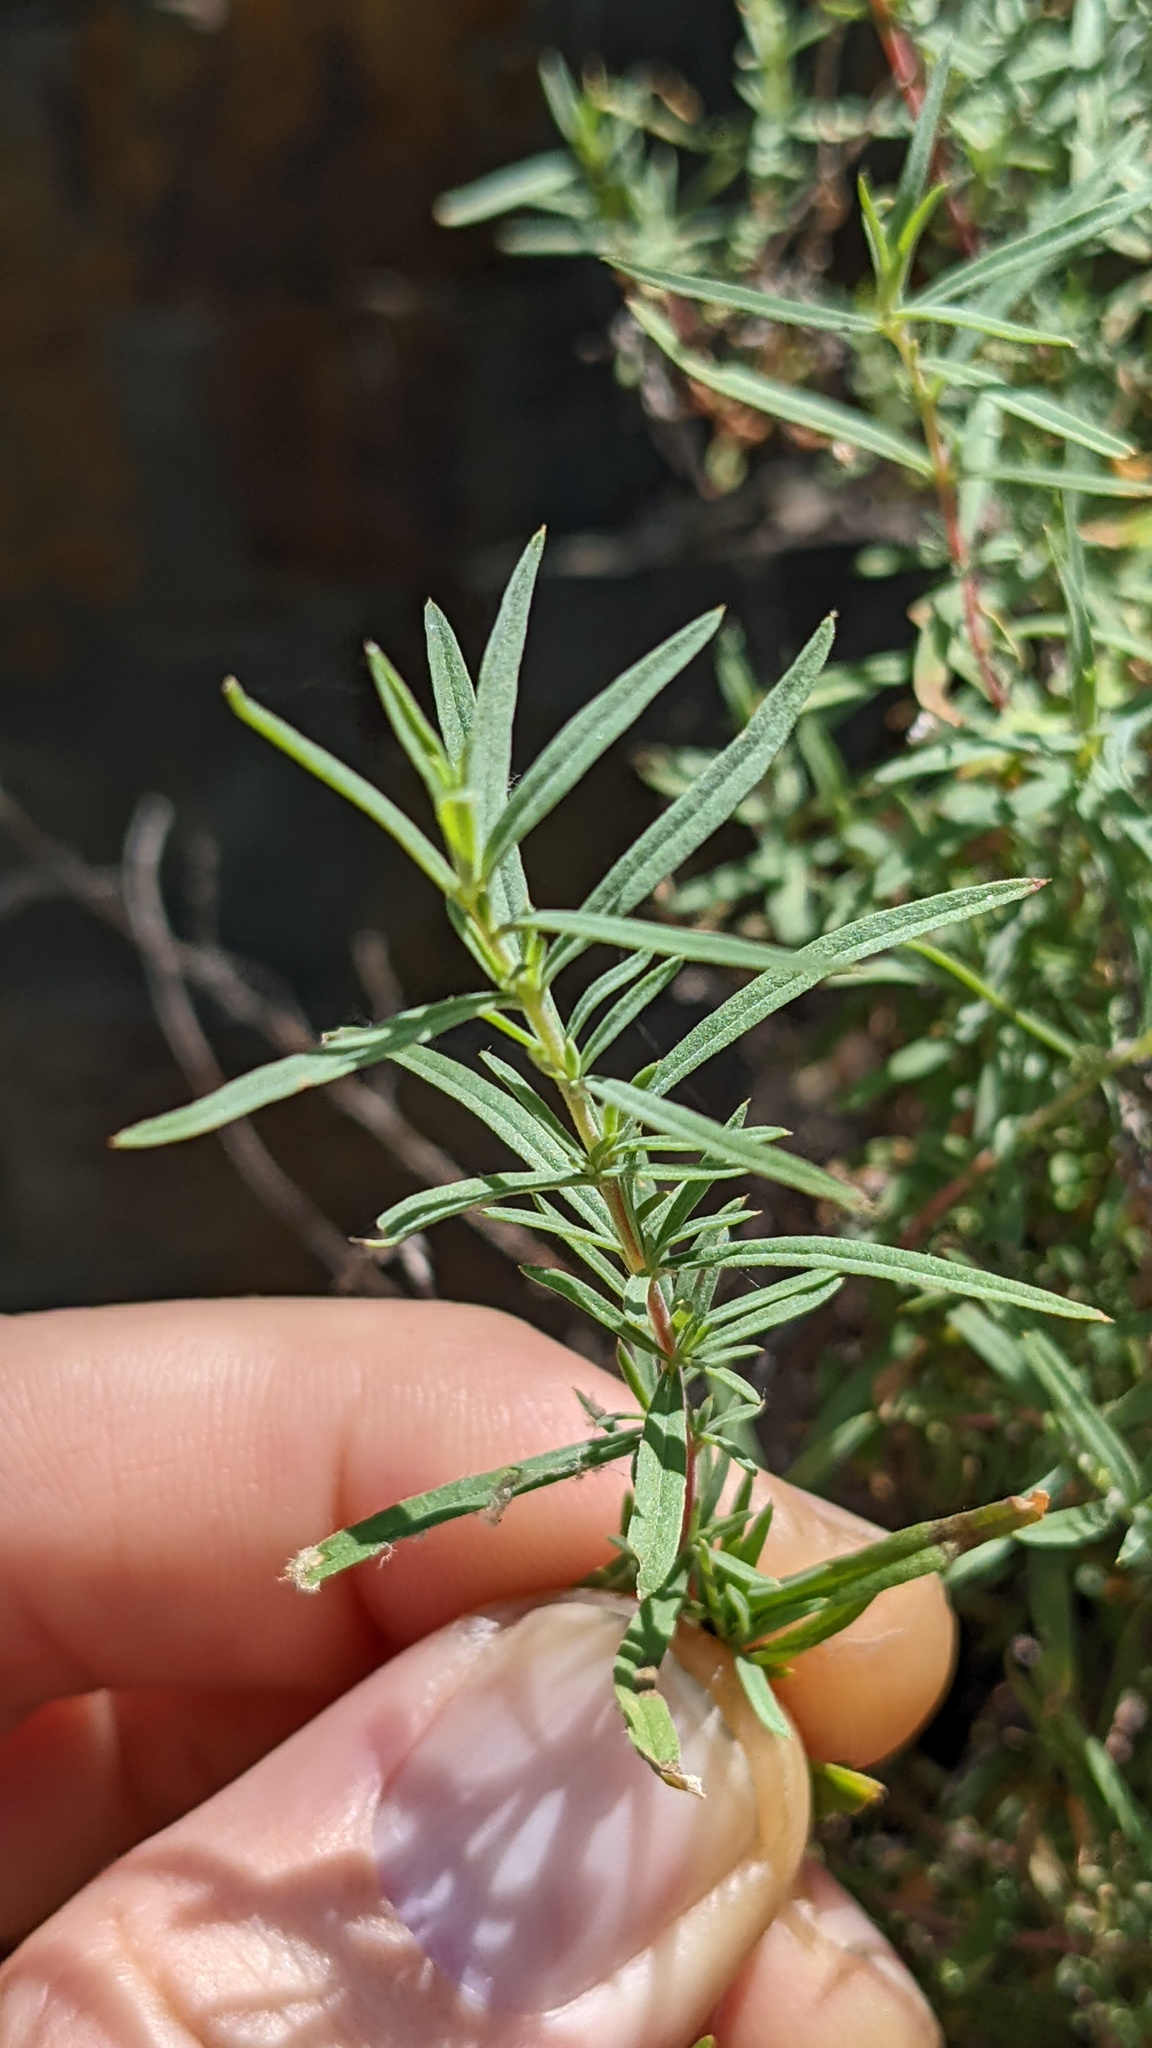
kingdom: Plantae
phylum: Tracheophyta
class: Magnoliopsida
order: Myrtales
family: Onagraceae
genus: Epilobium
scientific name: Epilobium canum
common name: California-fuchsia
